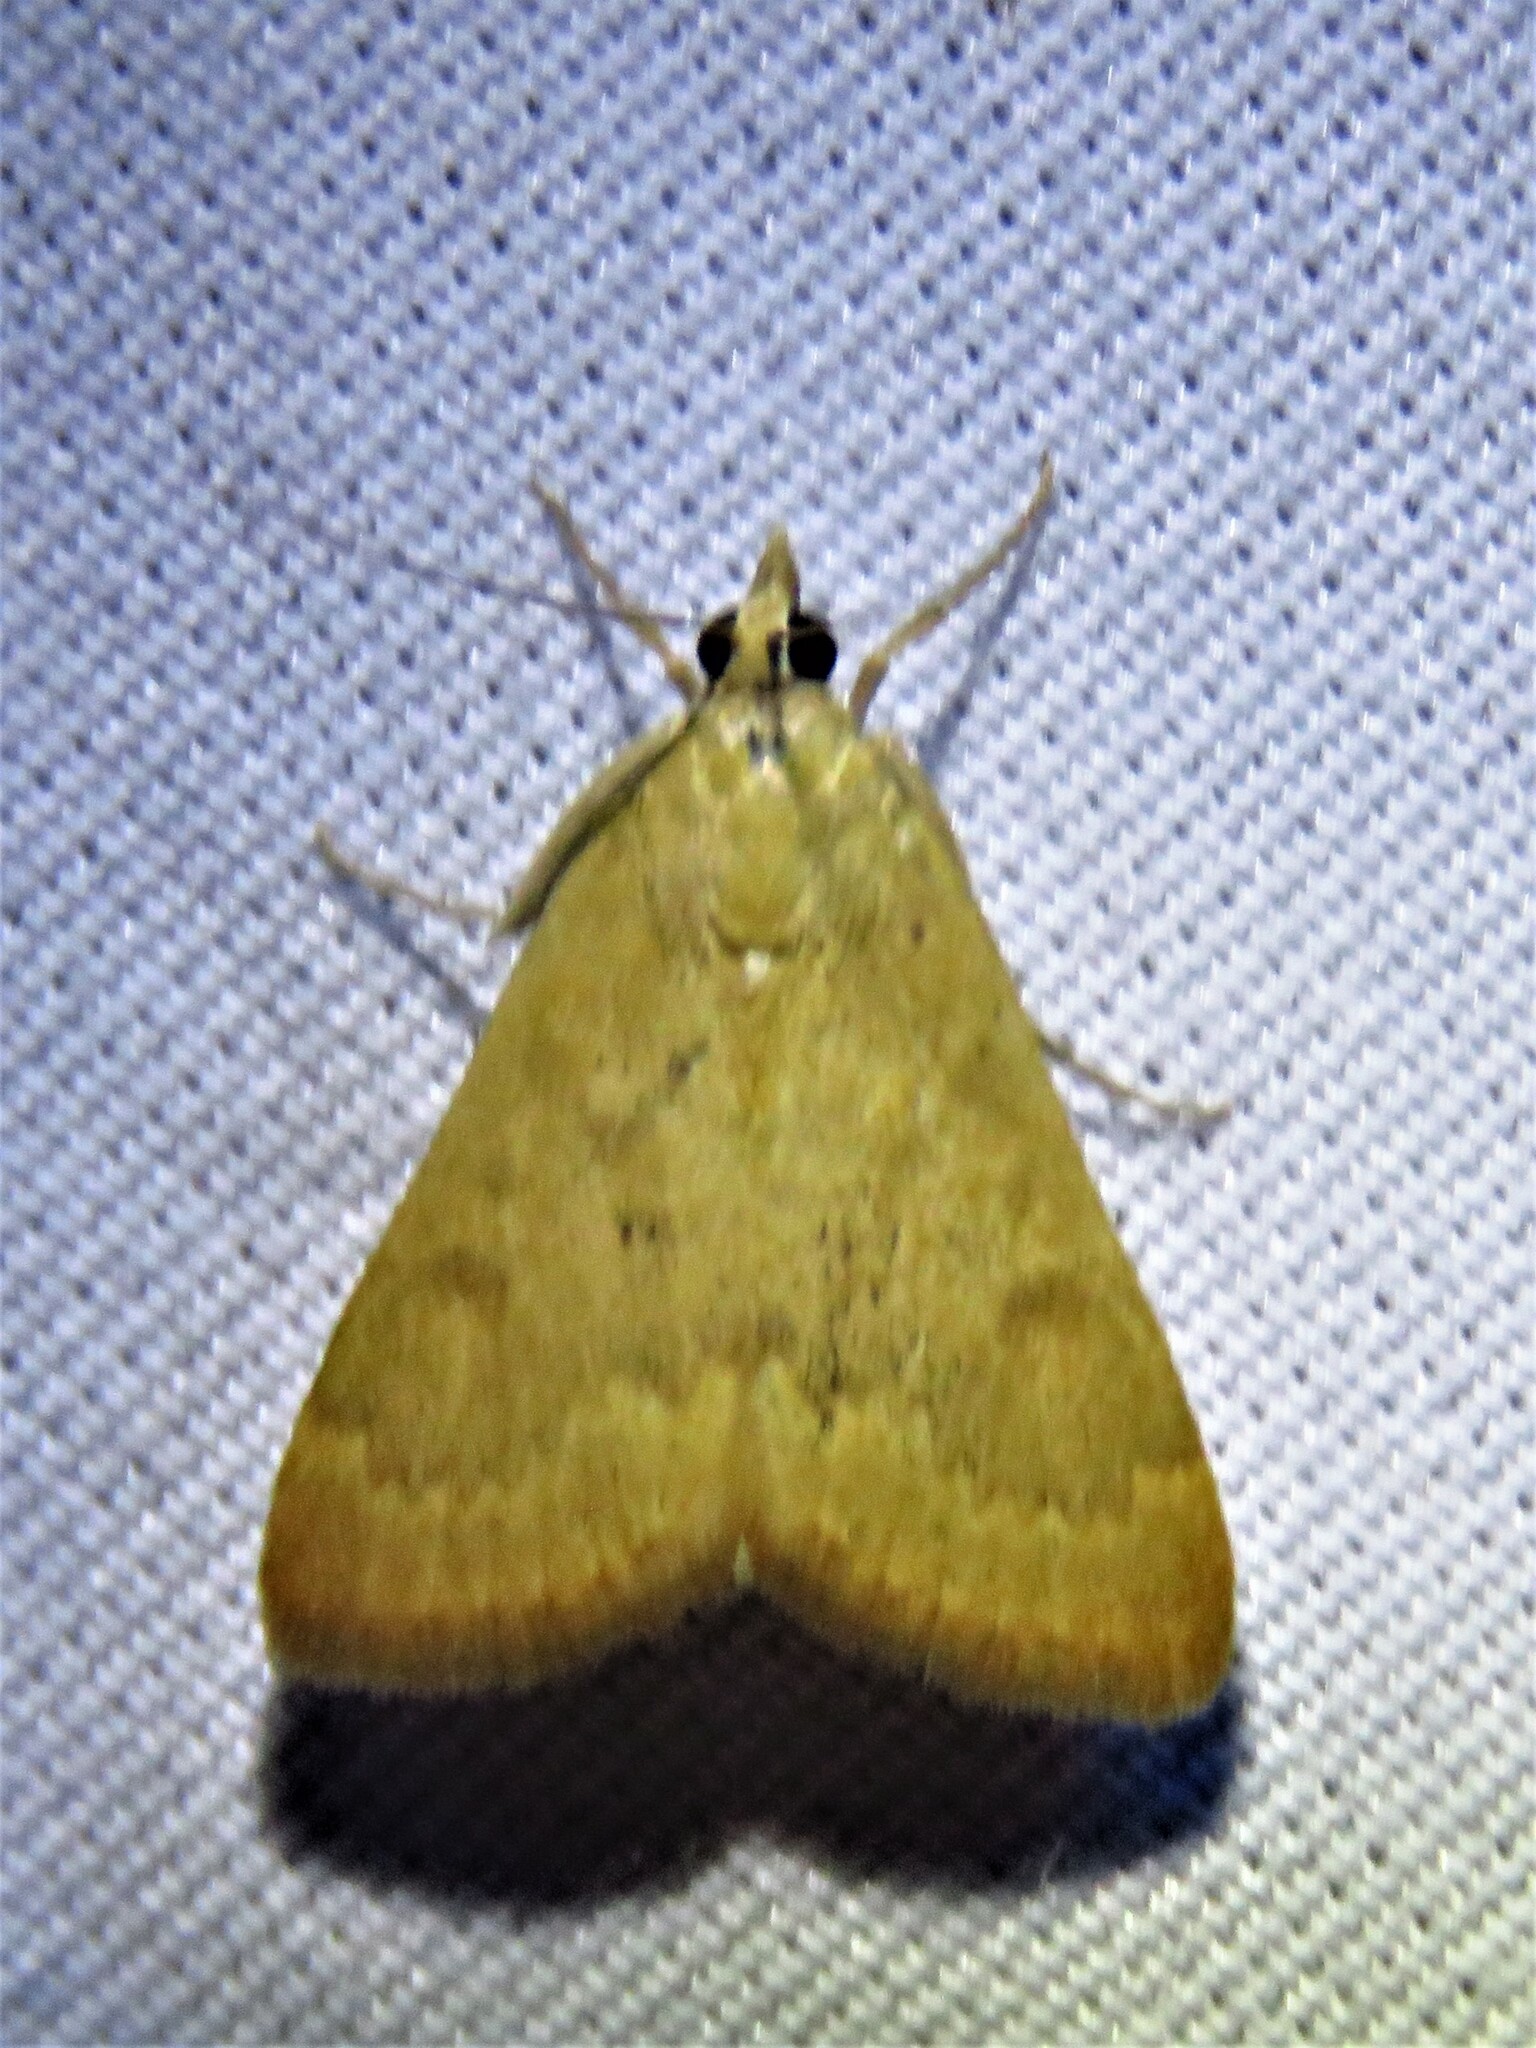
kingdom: Animalia
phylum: Arthropoda
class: Insecta
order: Lepidoptera
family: Crambidae
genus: Achyra
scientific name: Achyra rantalis
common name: Garden webworm
